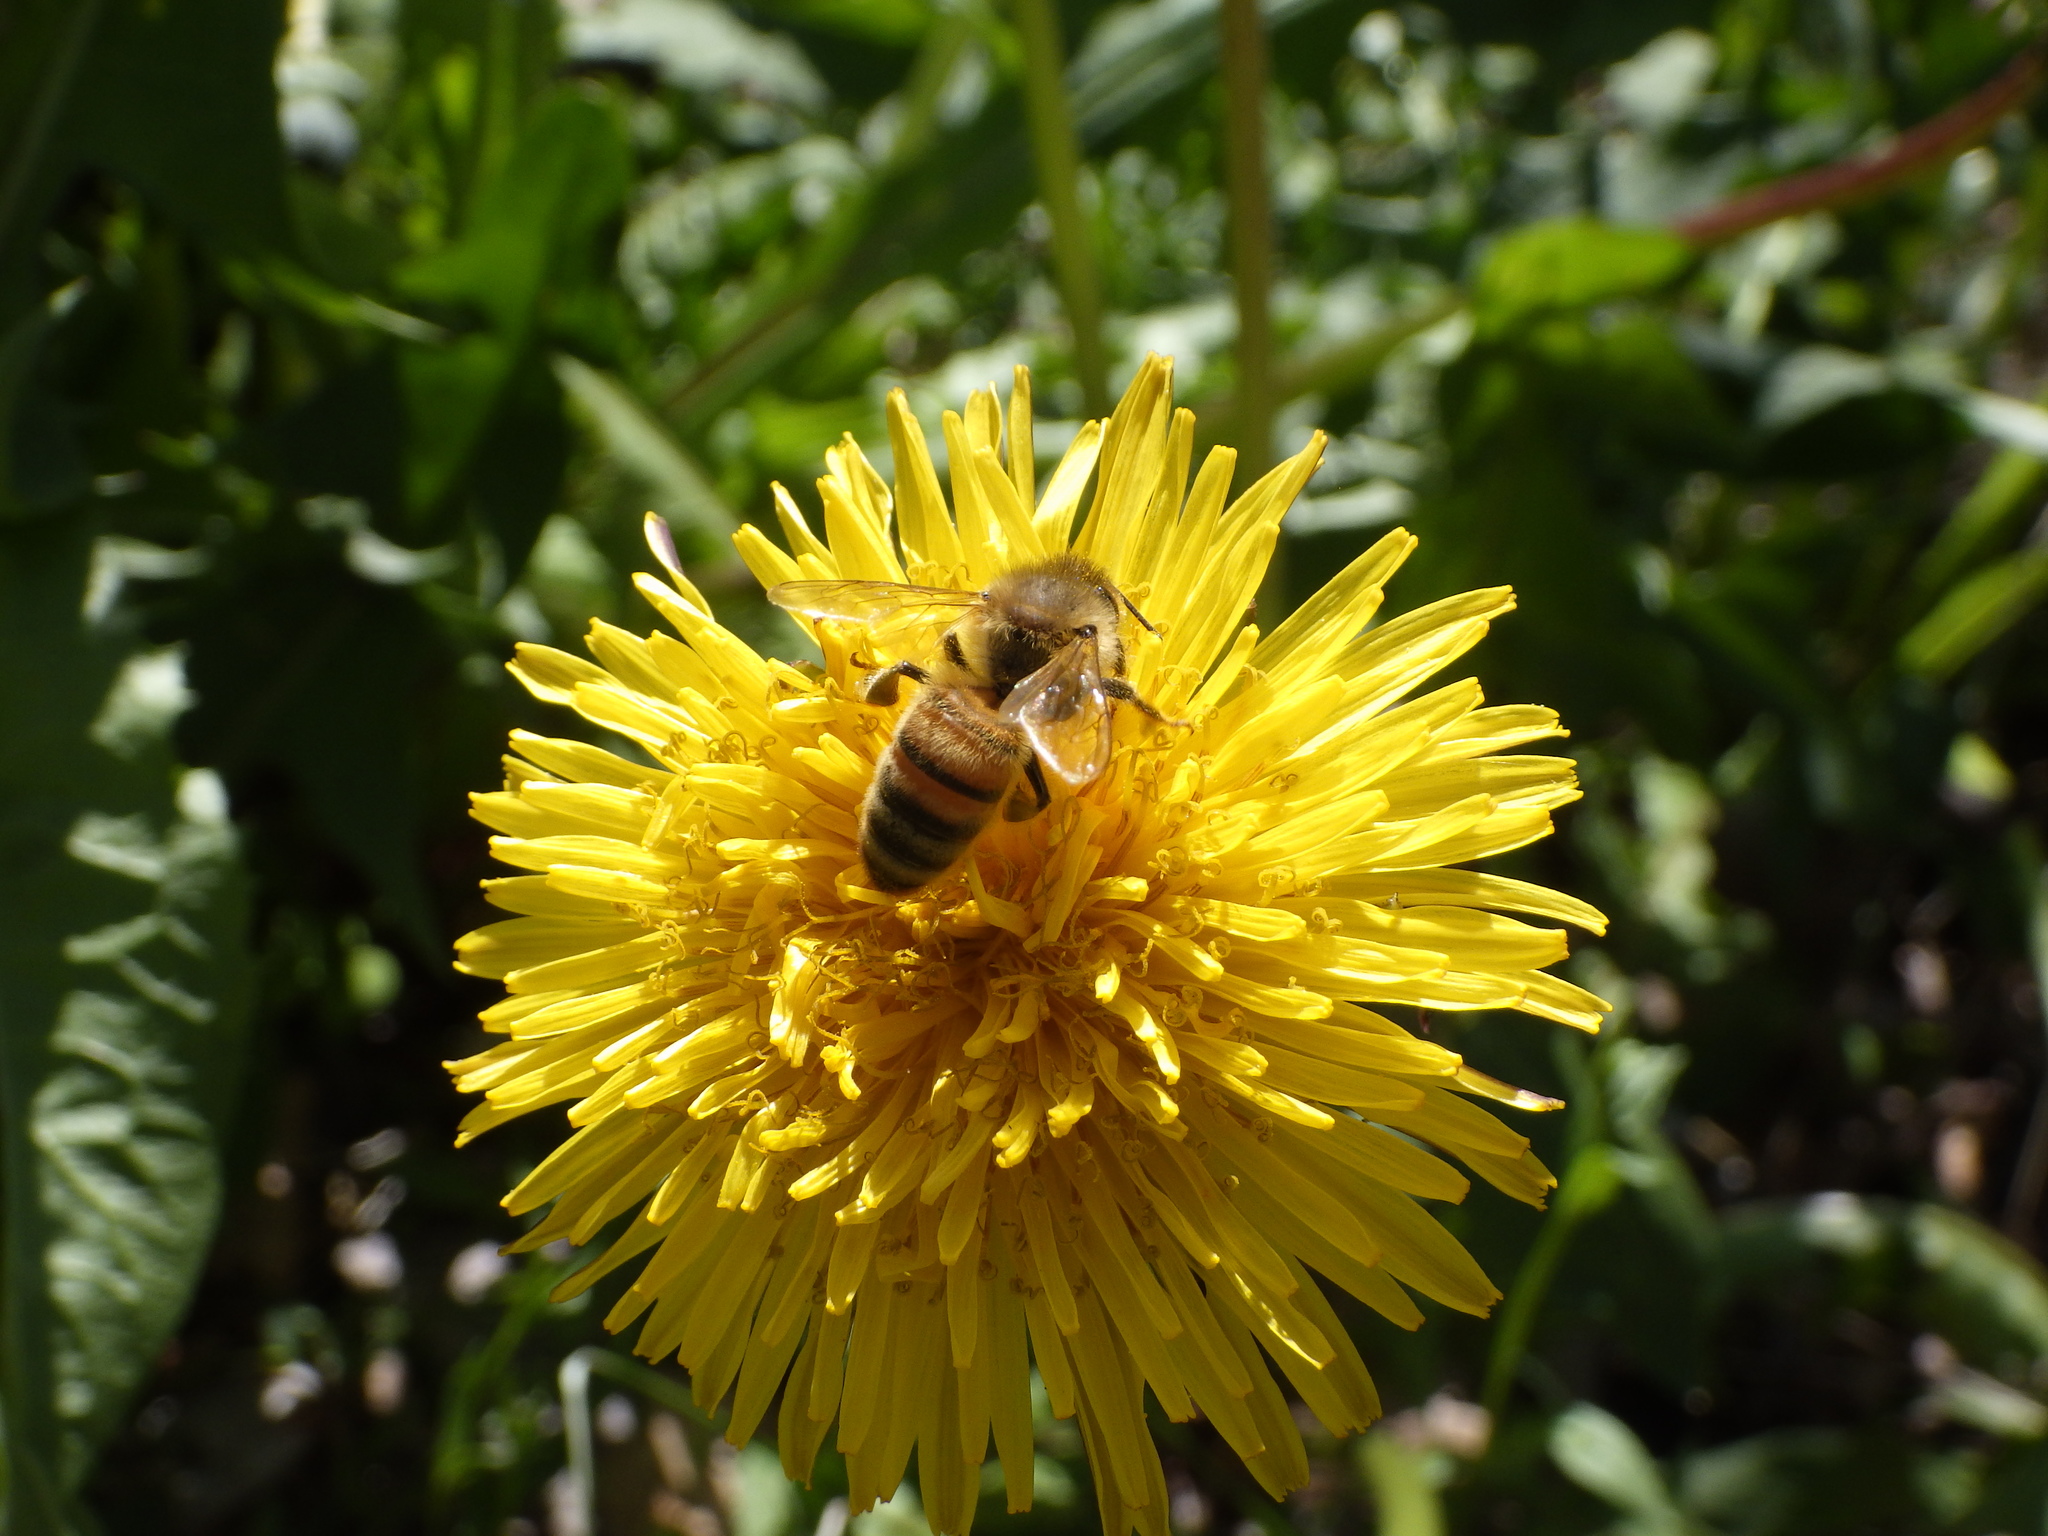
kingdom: Animalia
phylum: Arthropoda
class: Insecta
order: Hymenoptera
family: Apidae
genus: Apis
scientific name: Apis mellifera
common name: Honey bee
